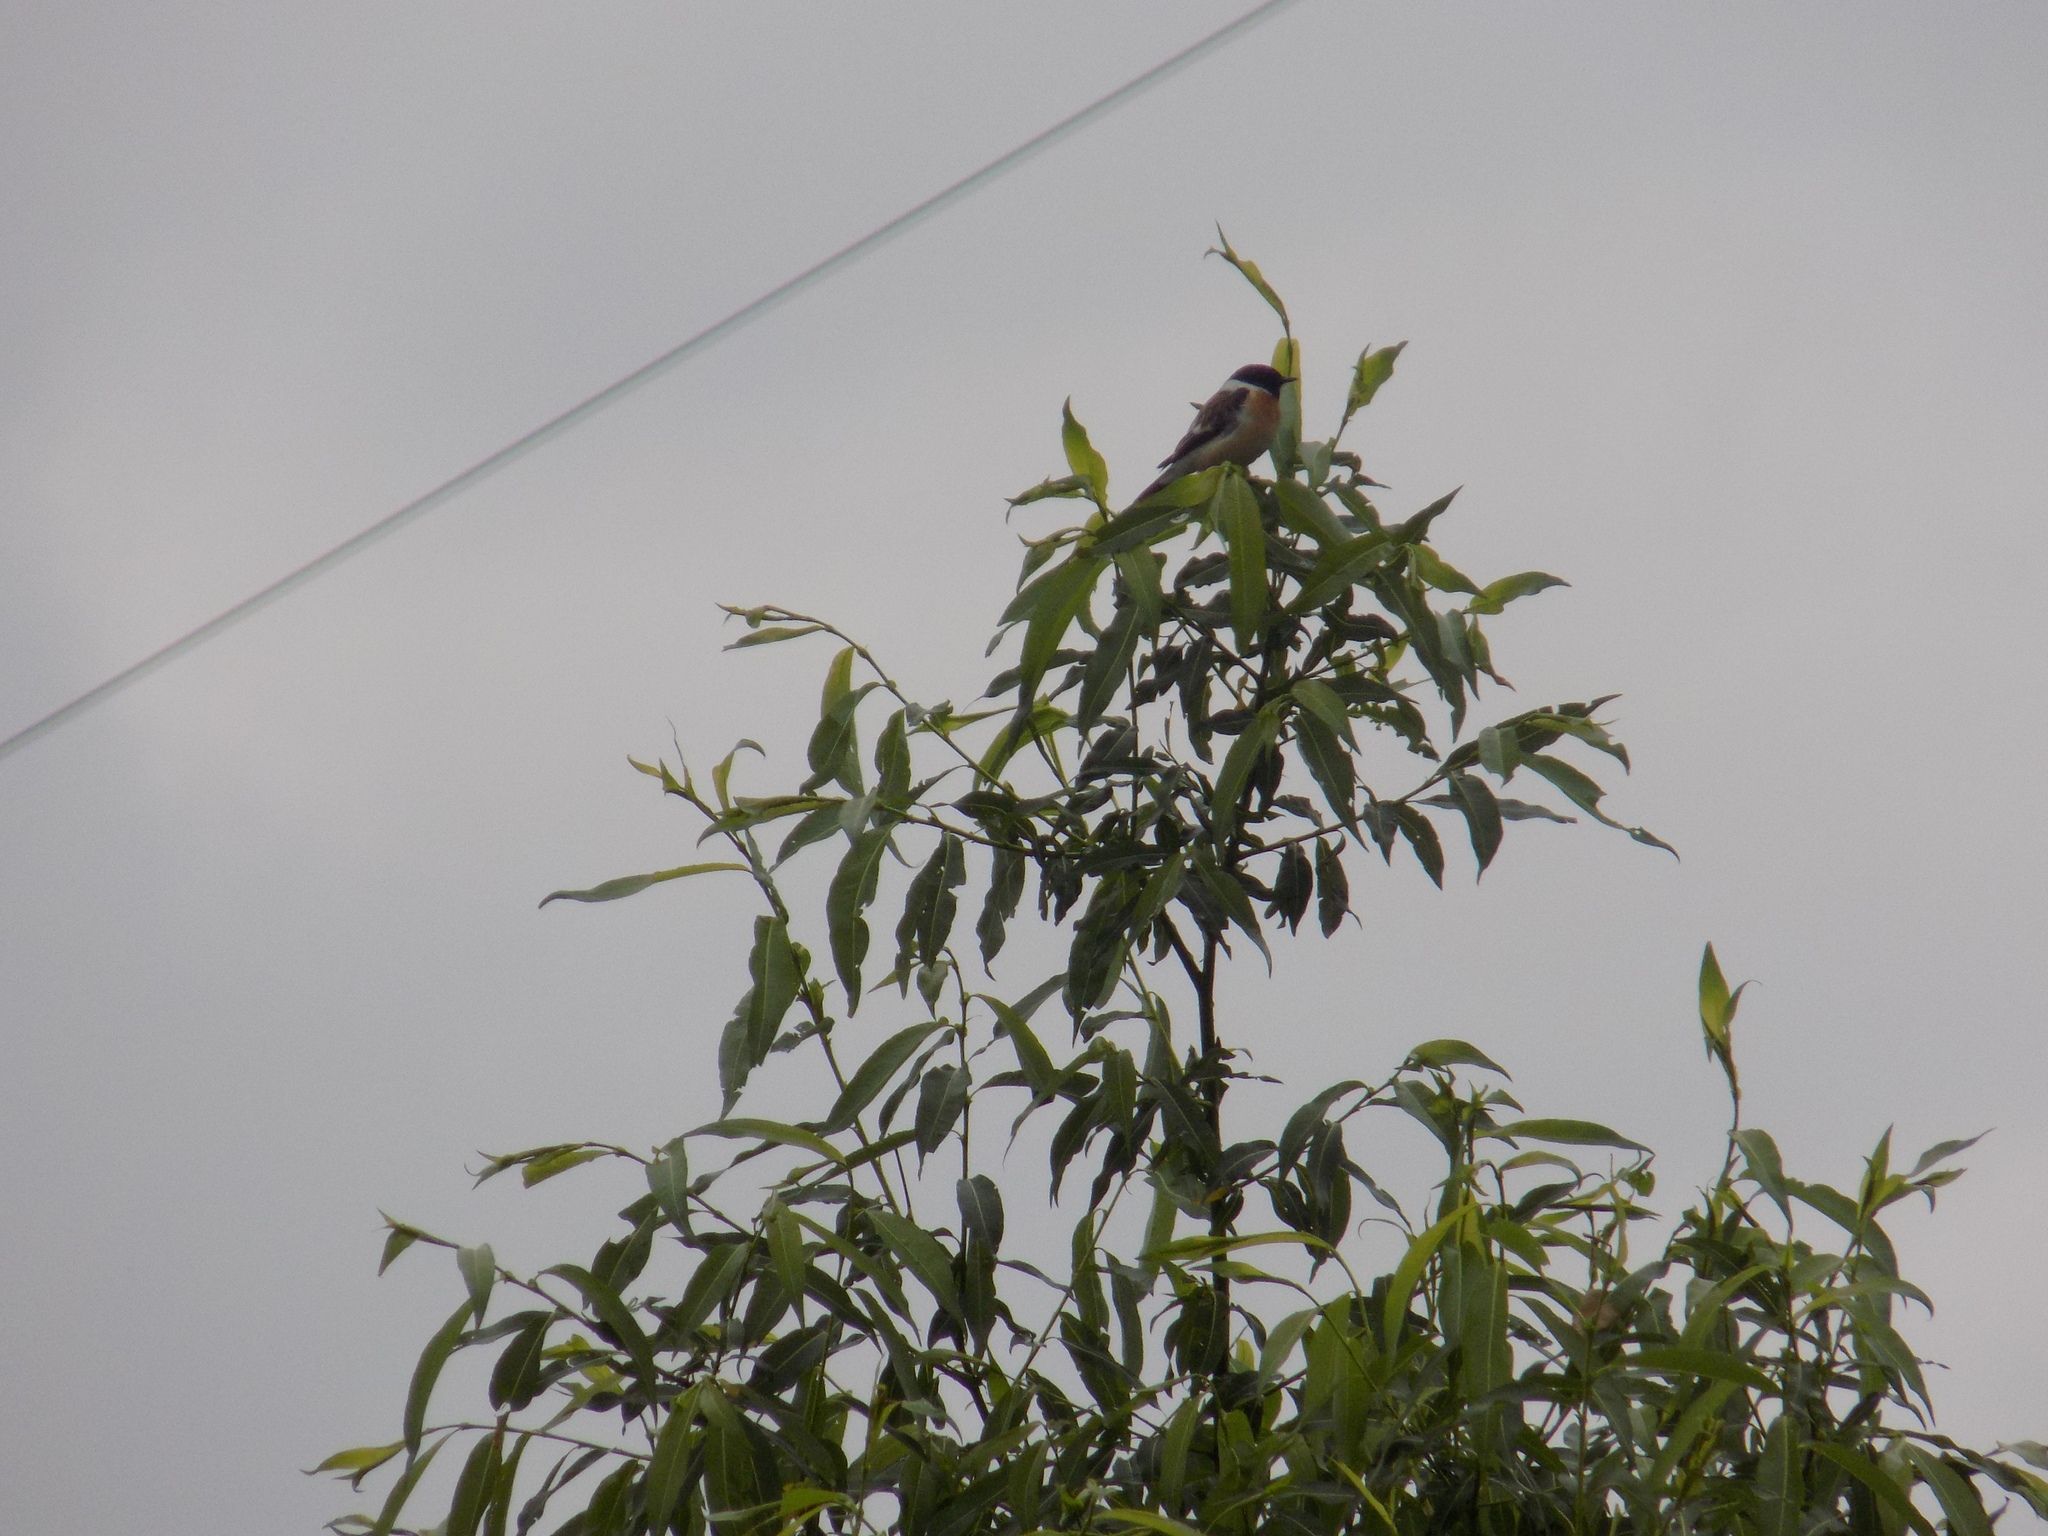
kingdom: Animalia
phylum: Chordata
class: Aves
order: Passeriformes
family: Muscicapidae
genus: Saxicola
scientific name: Saxicola maurus
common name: Siberian stonechat
